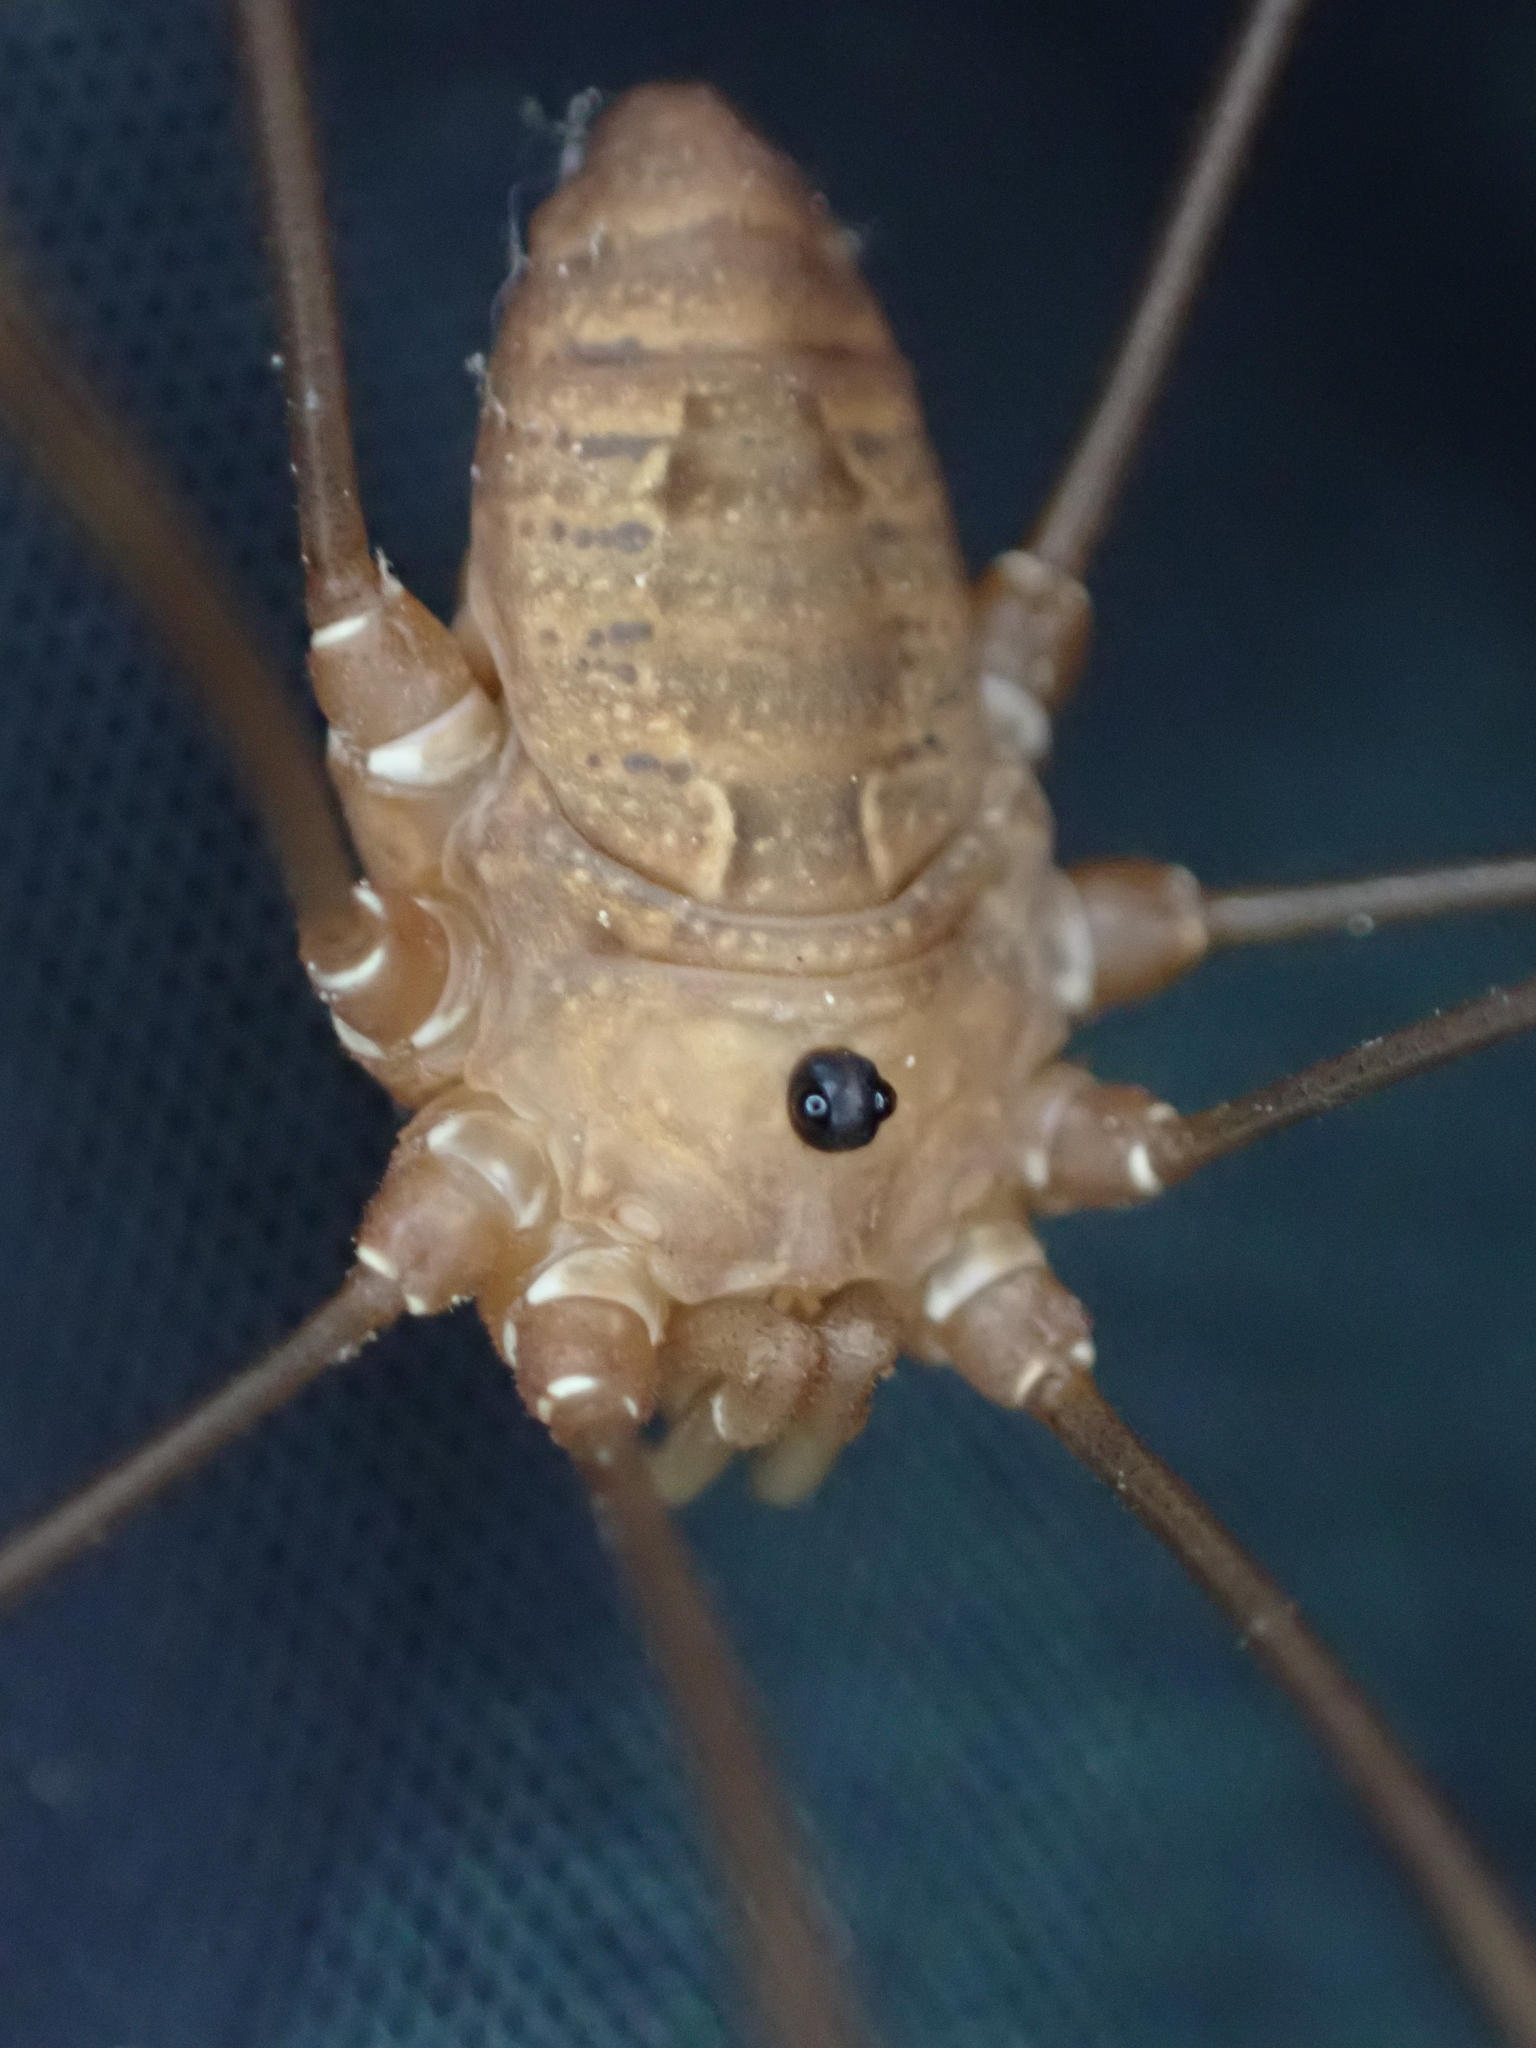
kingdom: Animalia
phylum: Arthropoda
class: Arachnida
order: Opiliones
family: Sclerosomatidae
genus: Leiobunum
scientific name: Leiobunum ventricosum
